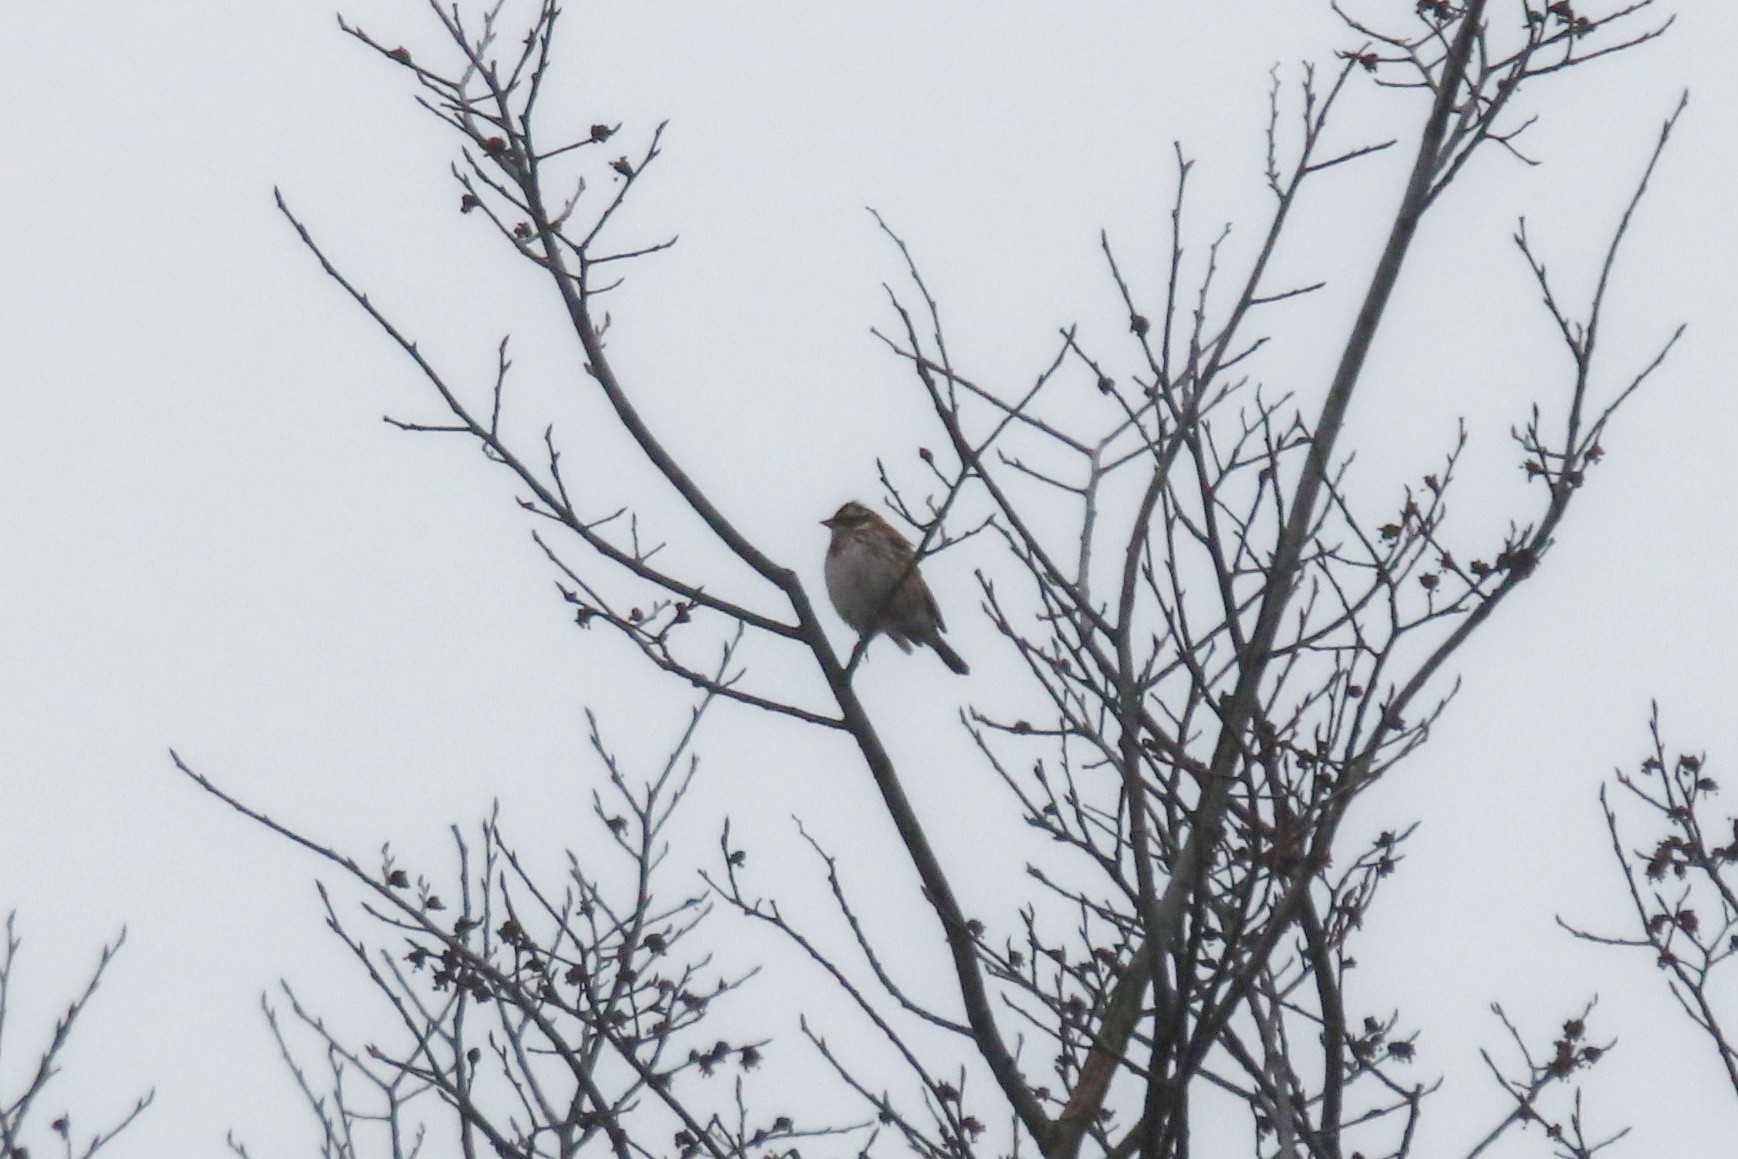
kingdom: Animalia
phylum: Chordata
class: Aves
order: Passeriformes
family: Emberizidae
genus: Emberiza
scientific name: Emberiza rustica
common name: Rustic bunting
